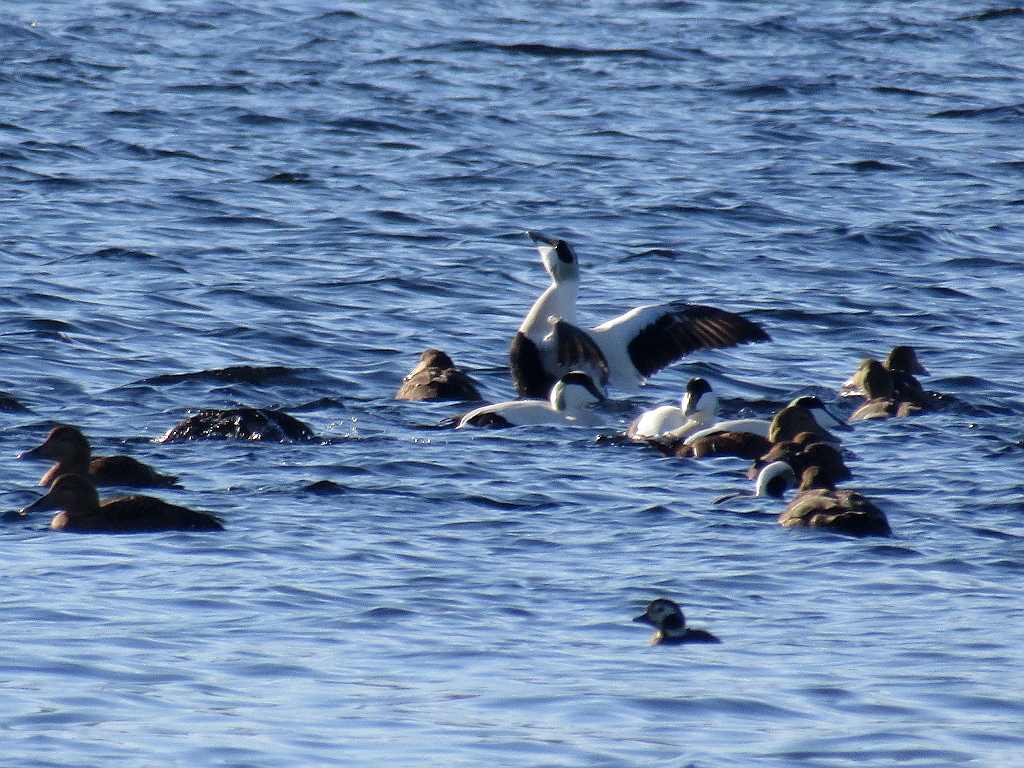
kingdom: Animalia
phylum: Chordata
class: Aves
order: Anseriformes
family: Anatidae
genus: Somateria
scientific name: Somateria mollissima
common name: Common eider
